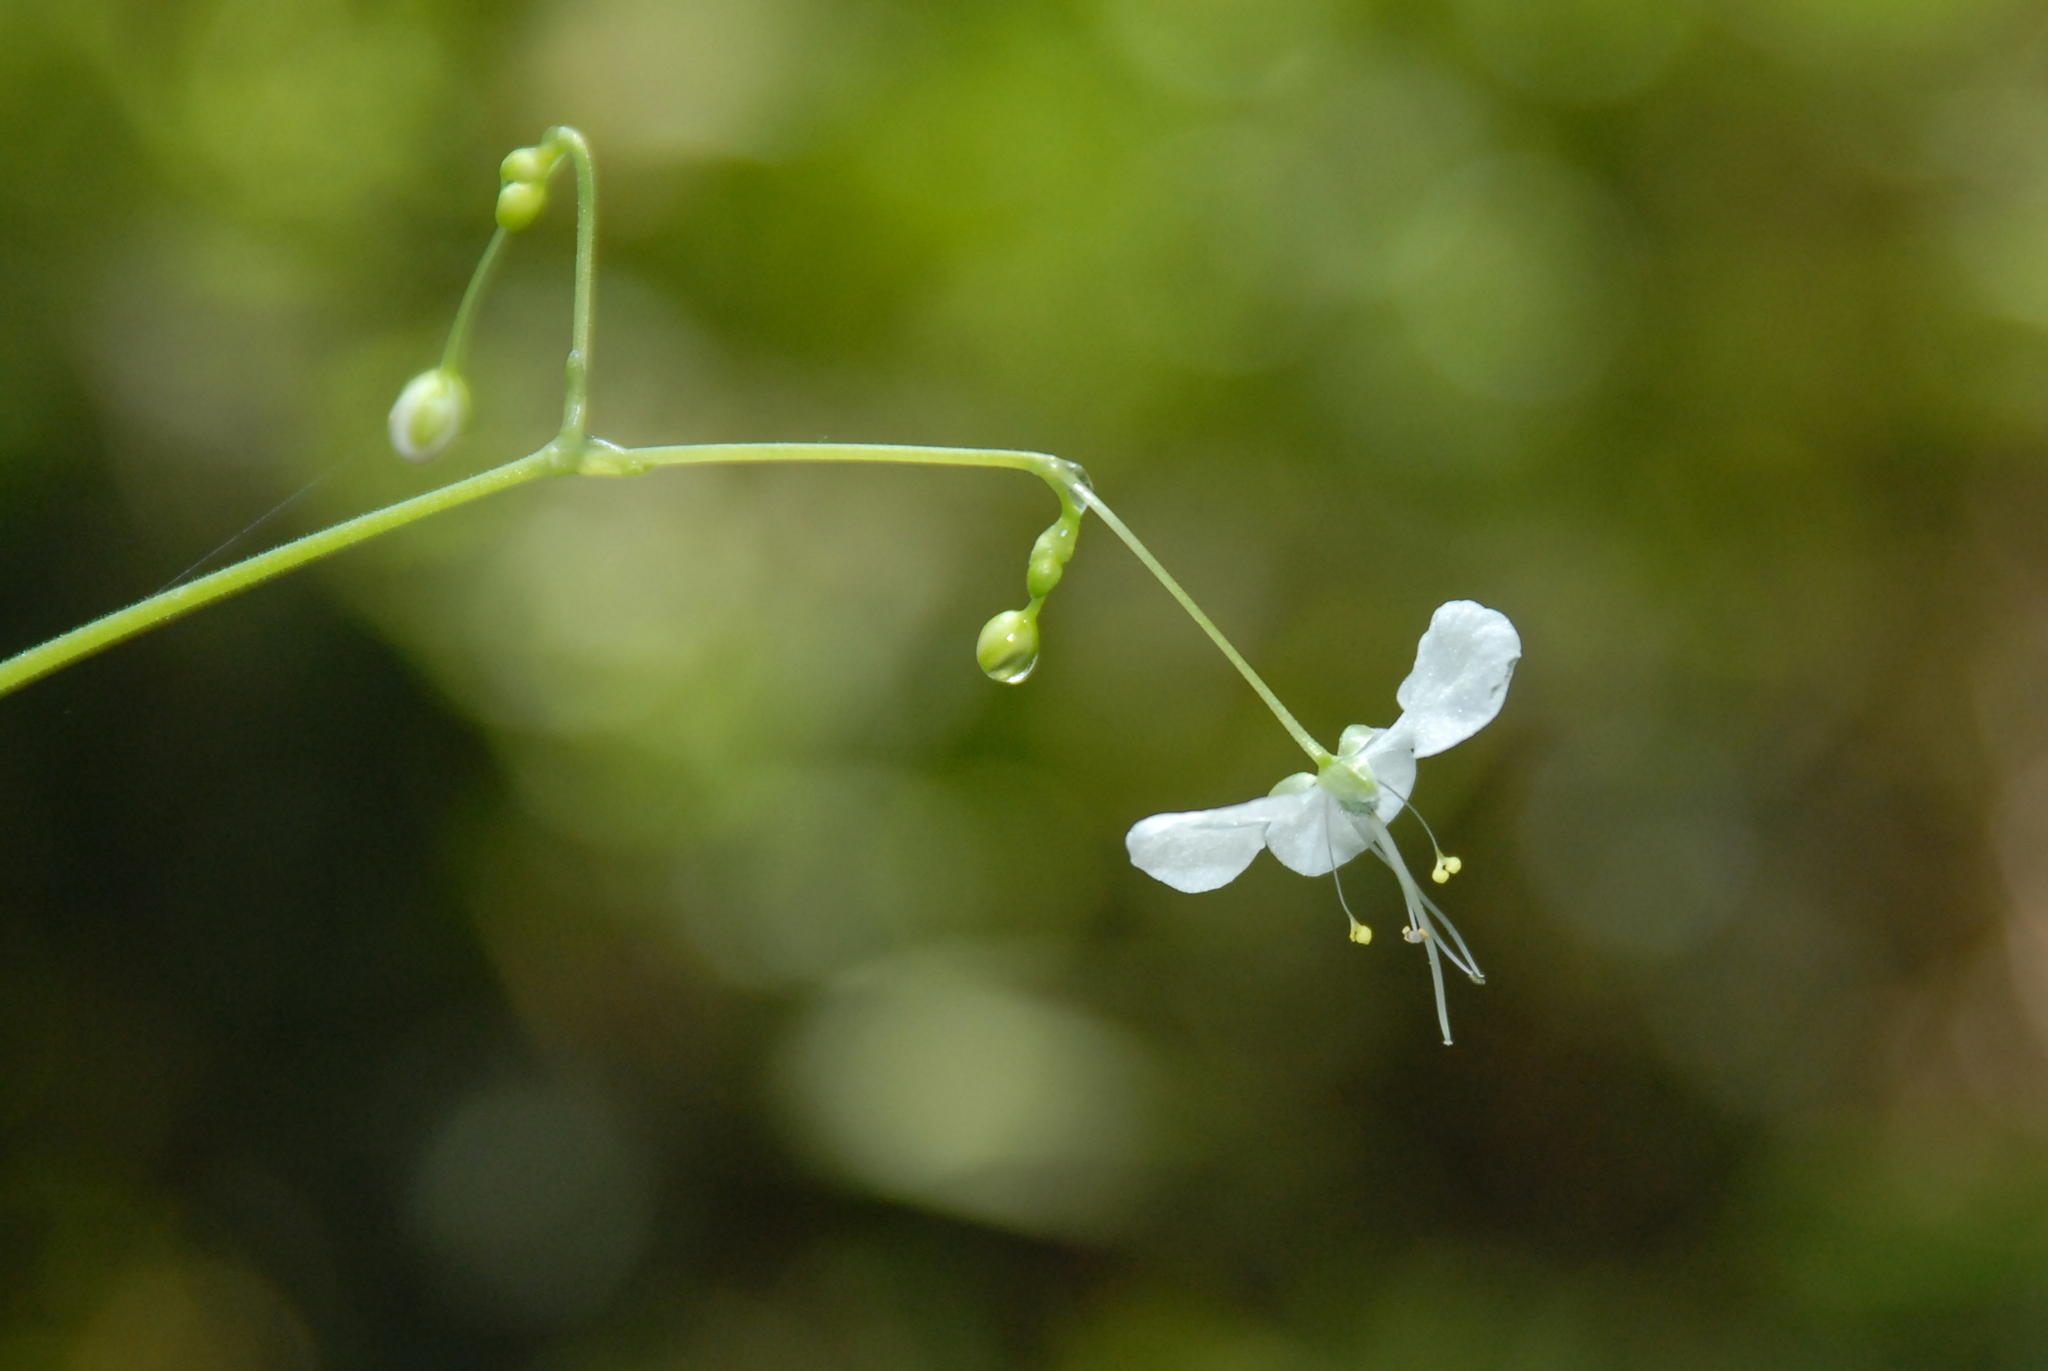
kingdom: Plantae
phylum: Tracheophyta
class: Liliopsida
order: Commelinales
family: Commelinaceae
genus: Rhopalephora
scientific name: Rhopalephora scaberrima
